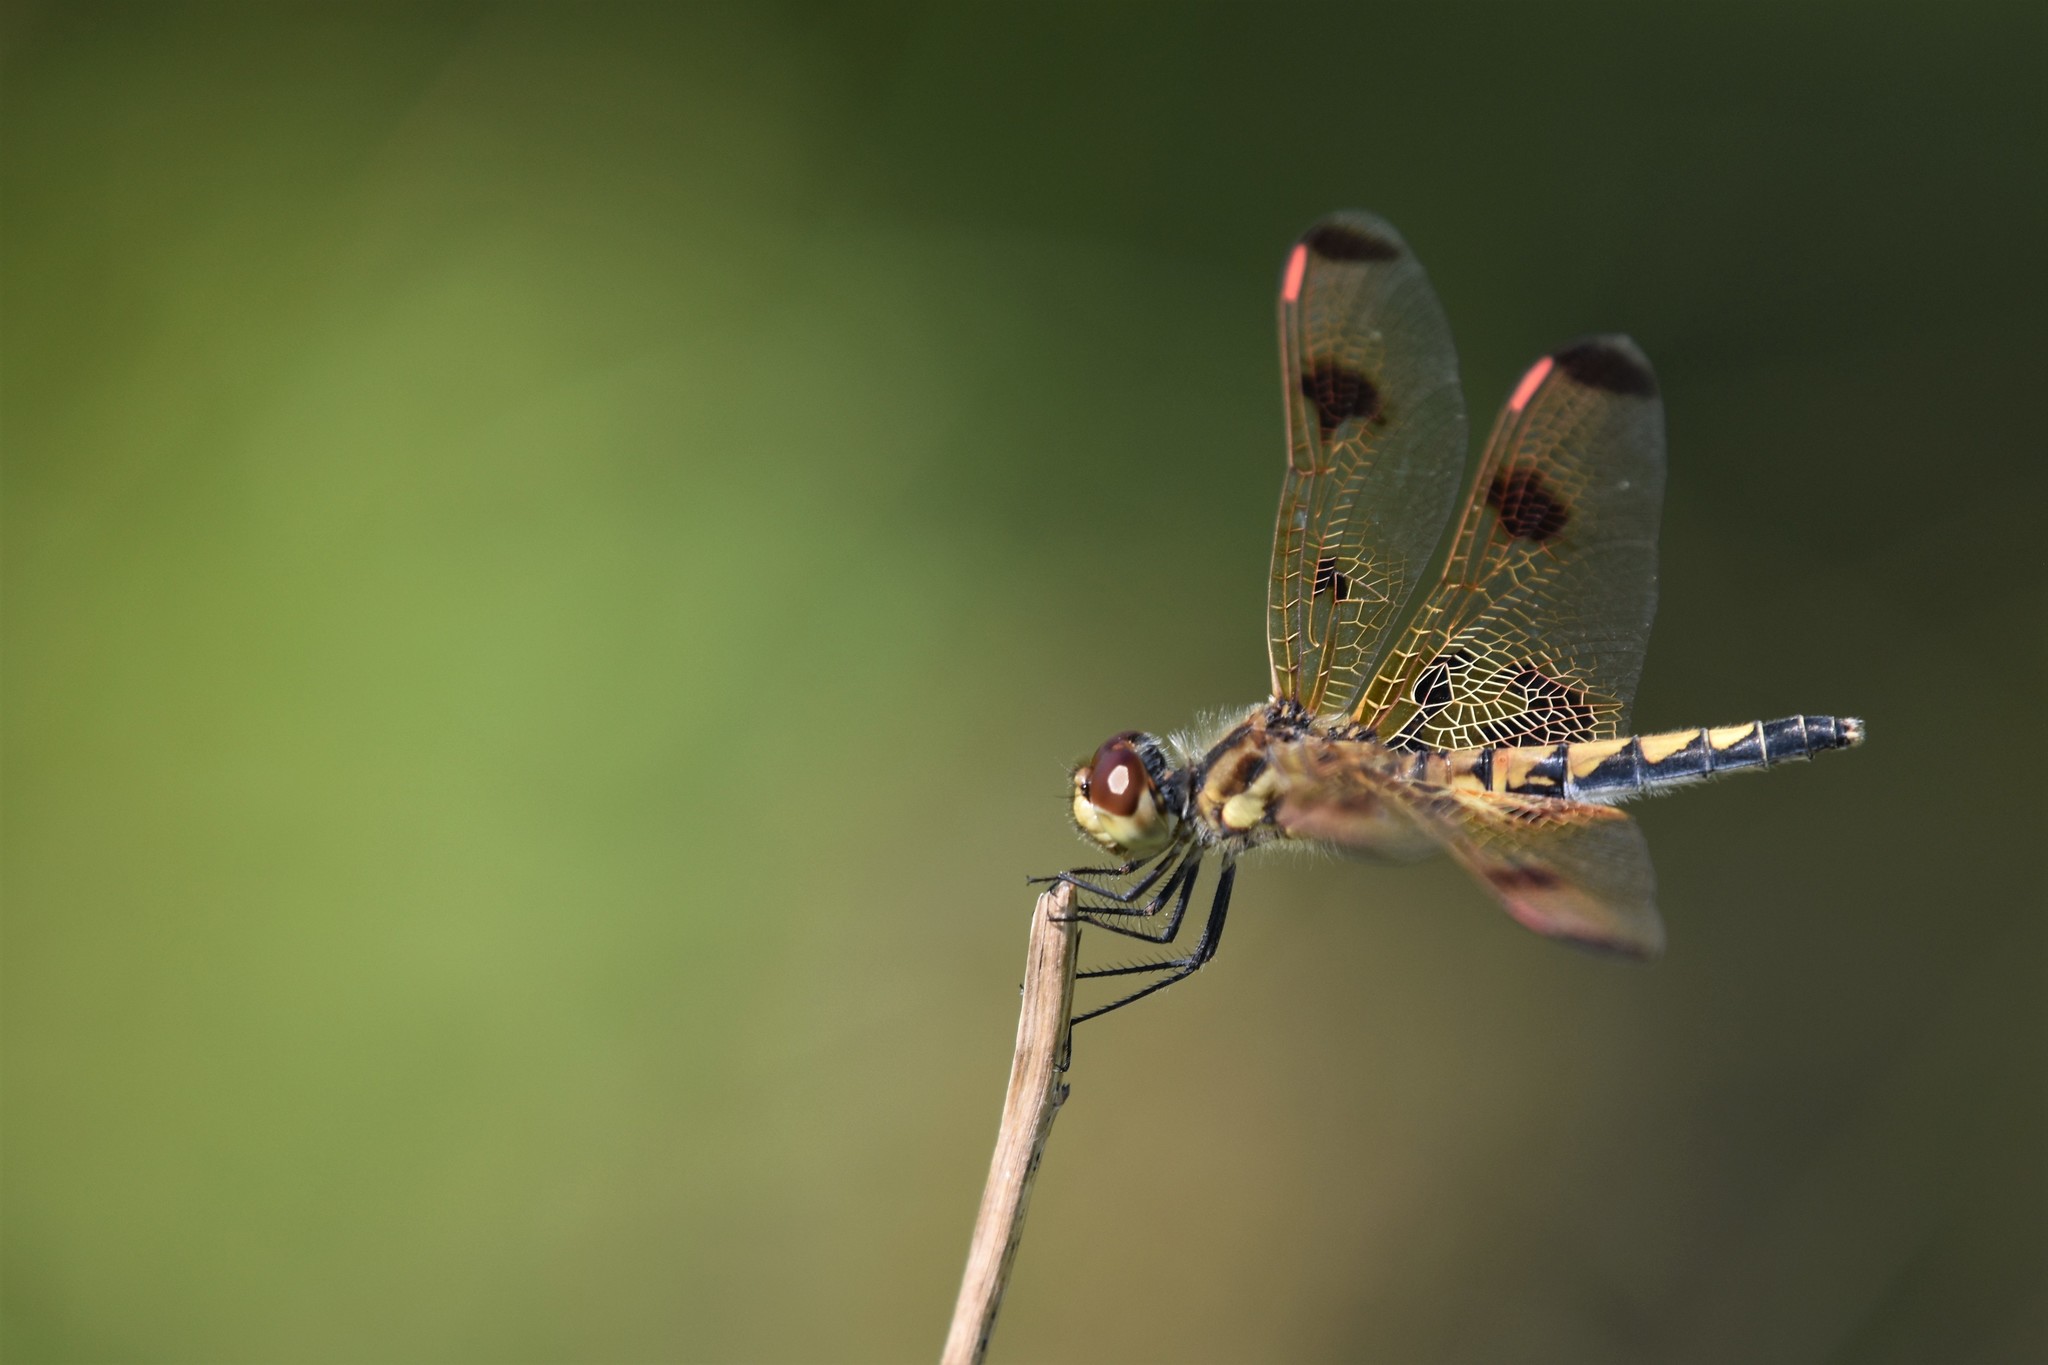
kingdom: Animalia
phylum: Arthropoda
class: Insecta
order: Odonata
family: Libellulidae
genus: Celithemis
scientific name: Celithemis elisa
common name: Calico pennant
